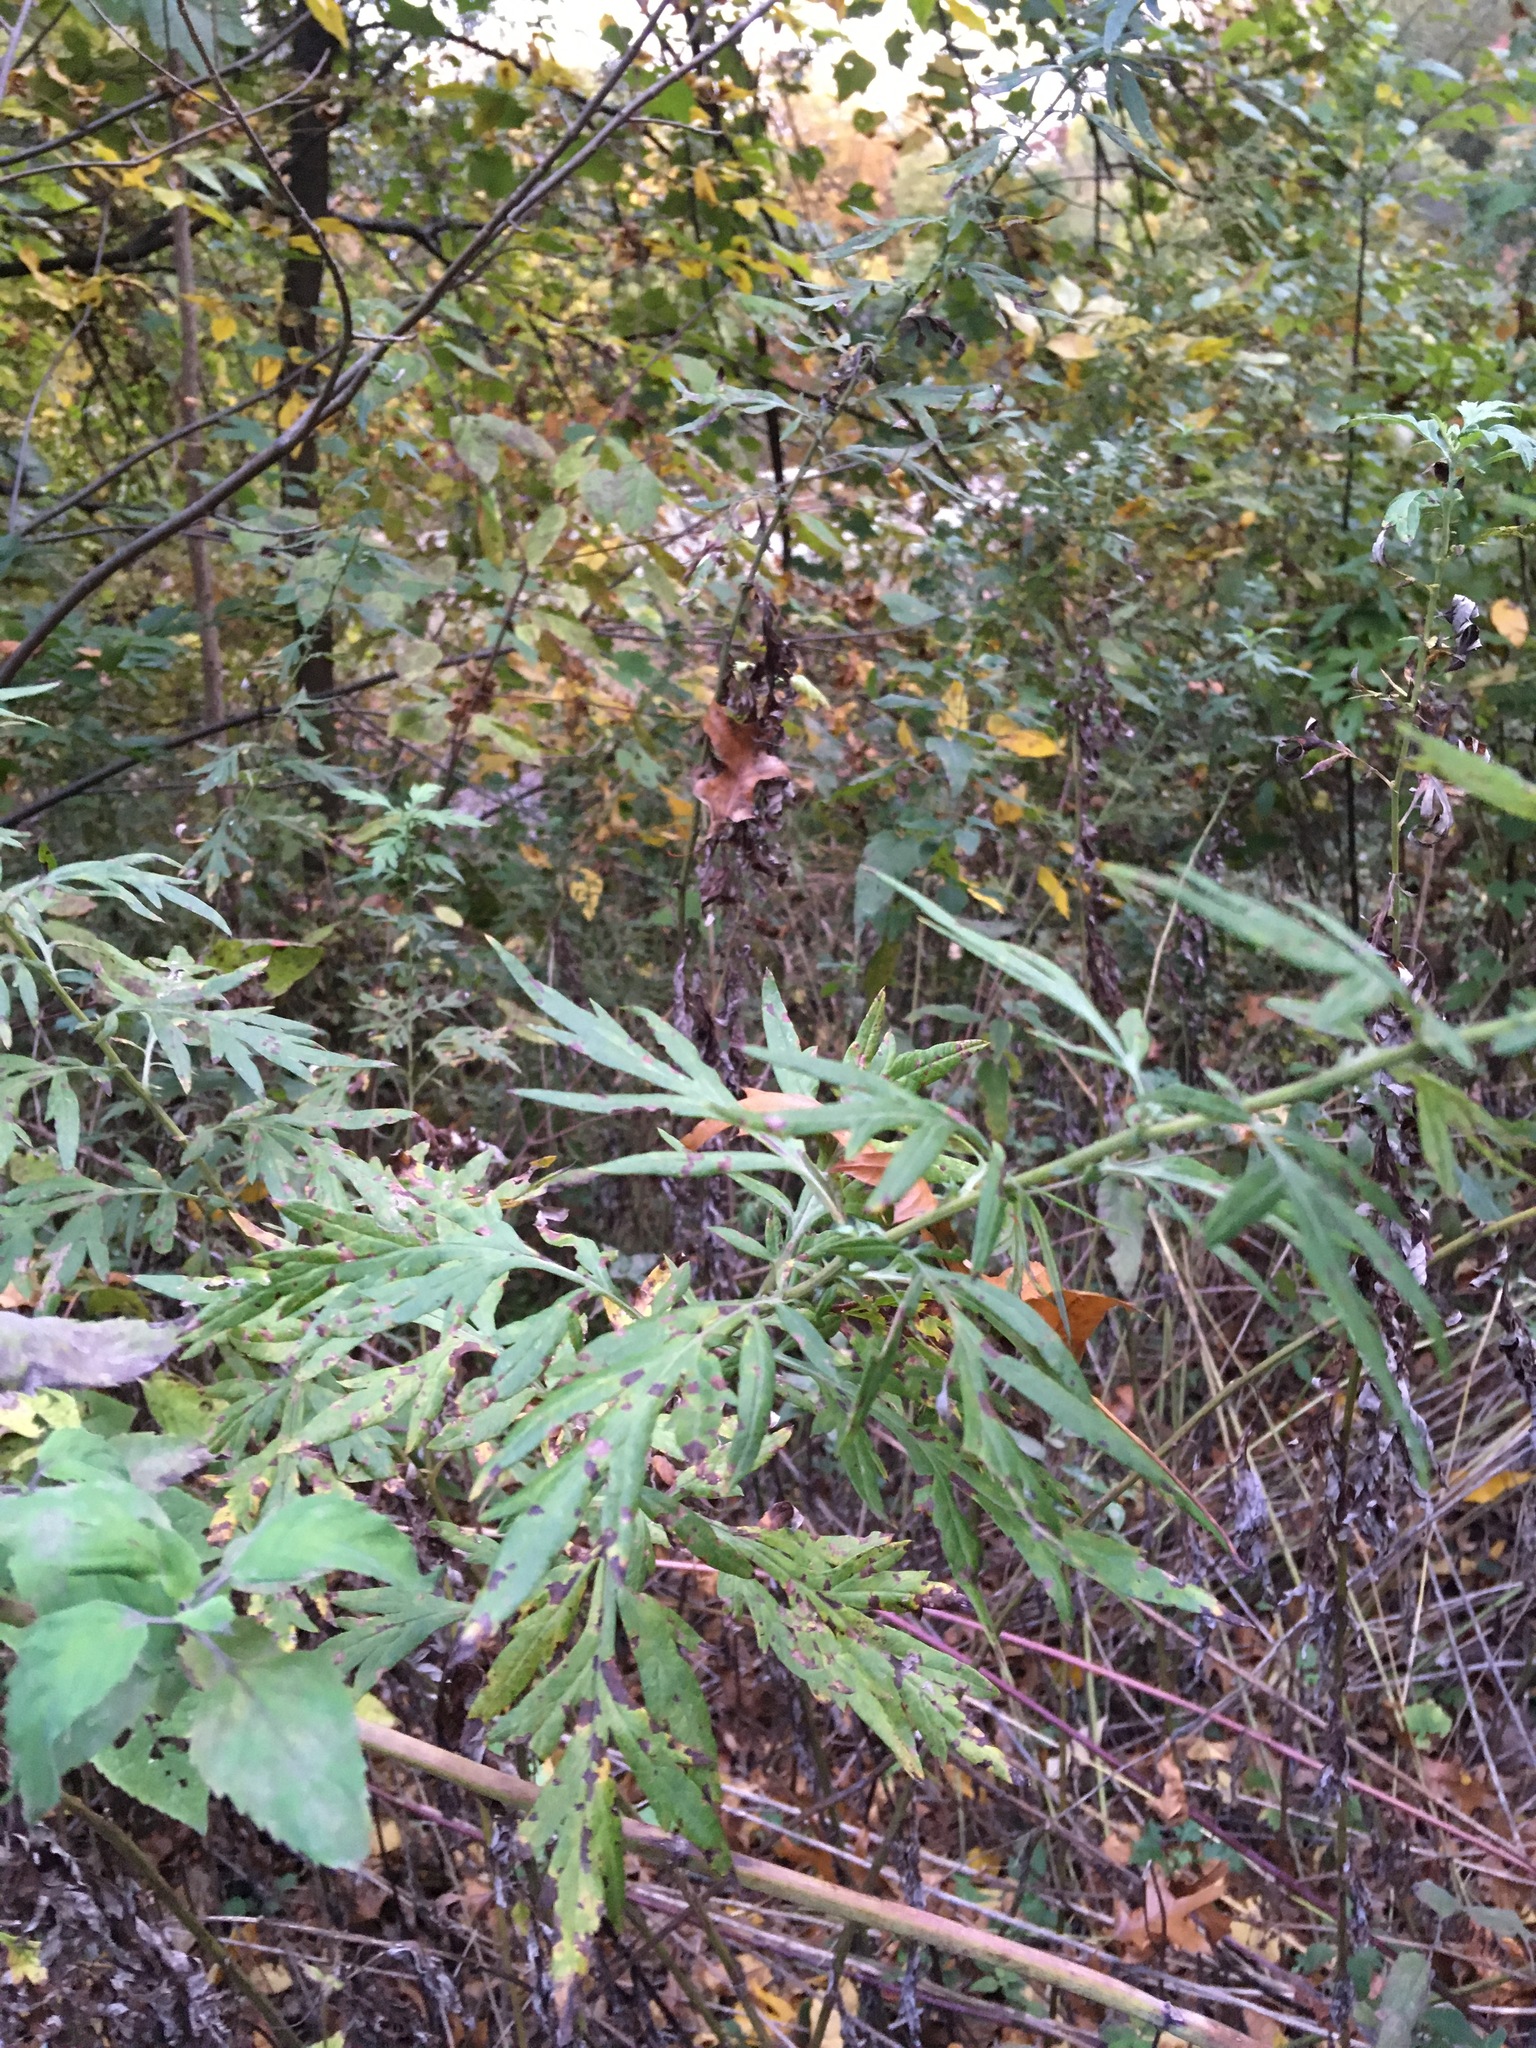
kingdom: Plantae
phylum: Tracheophyta
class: Magnoliopsida
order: Asterales
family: Asteraceae
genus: Artemisia
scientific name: Artemisia vulgaris
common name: Mugwort
